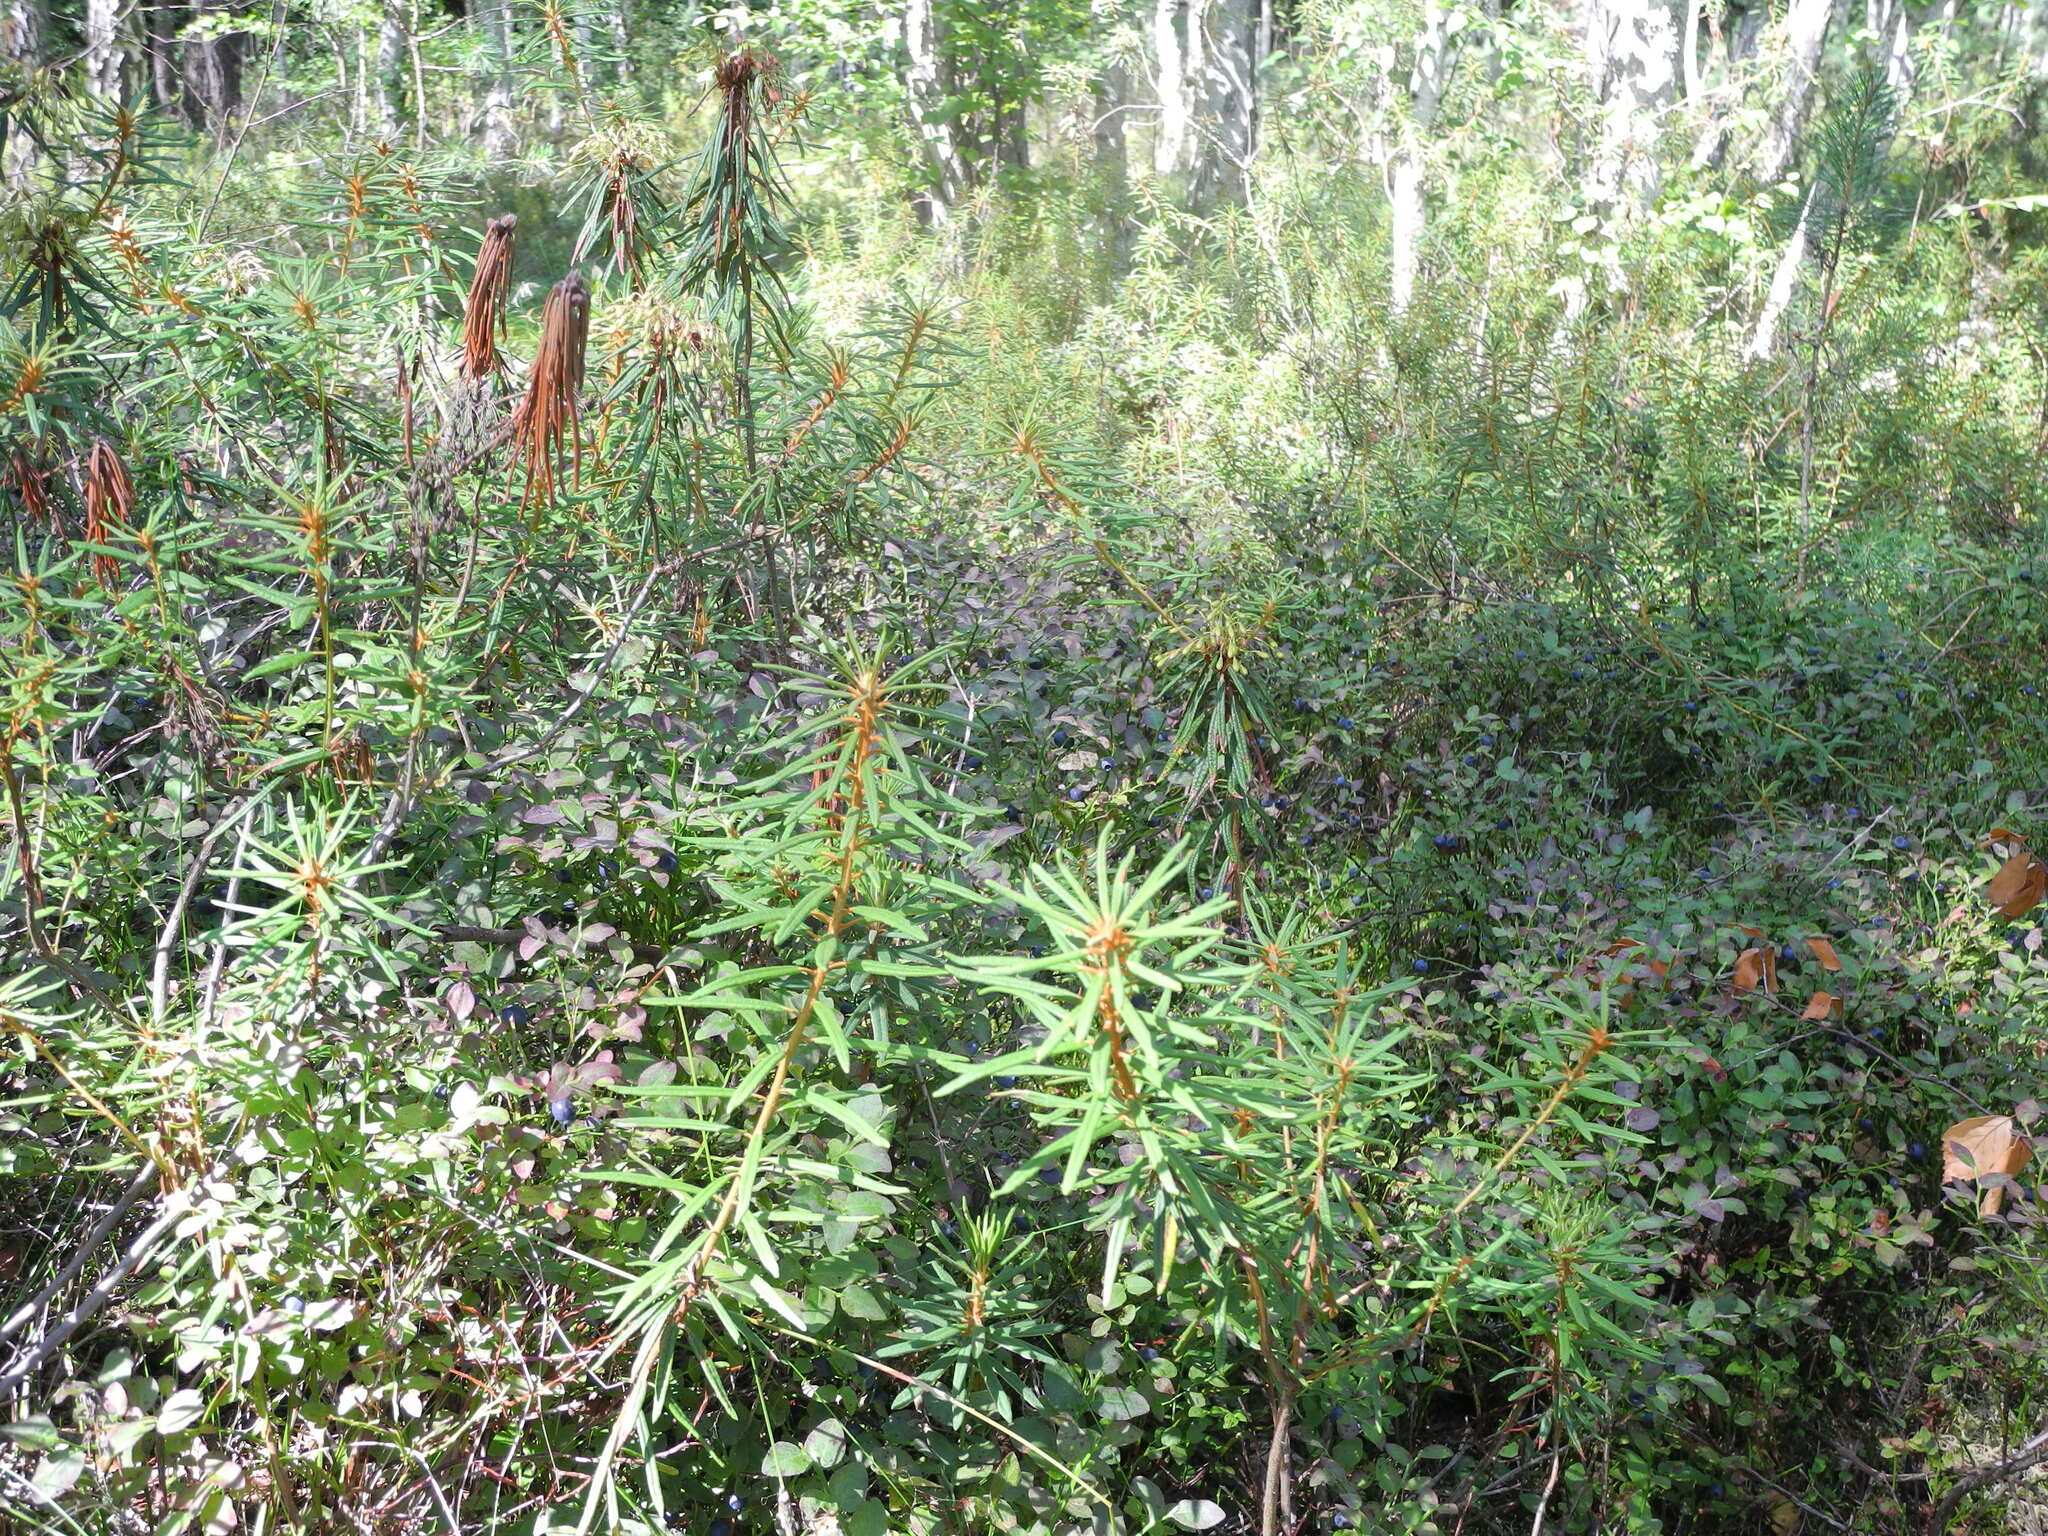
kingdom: Plantae
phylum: Tracheophyta
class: Magnoliopsida
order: Ericales
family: Ericaceae
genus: Rhododendron
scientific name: Rhododendron tomentosum
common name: Marsh labrador tea
